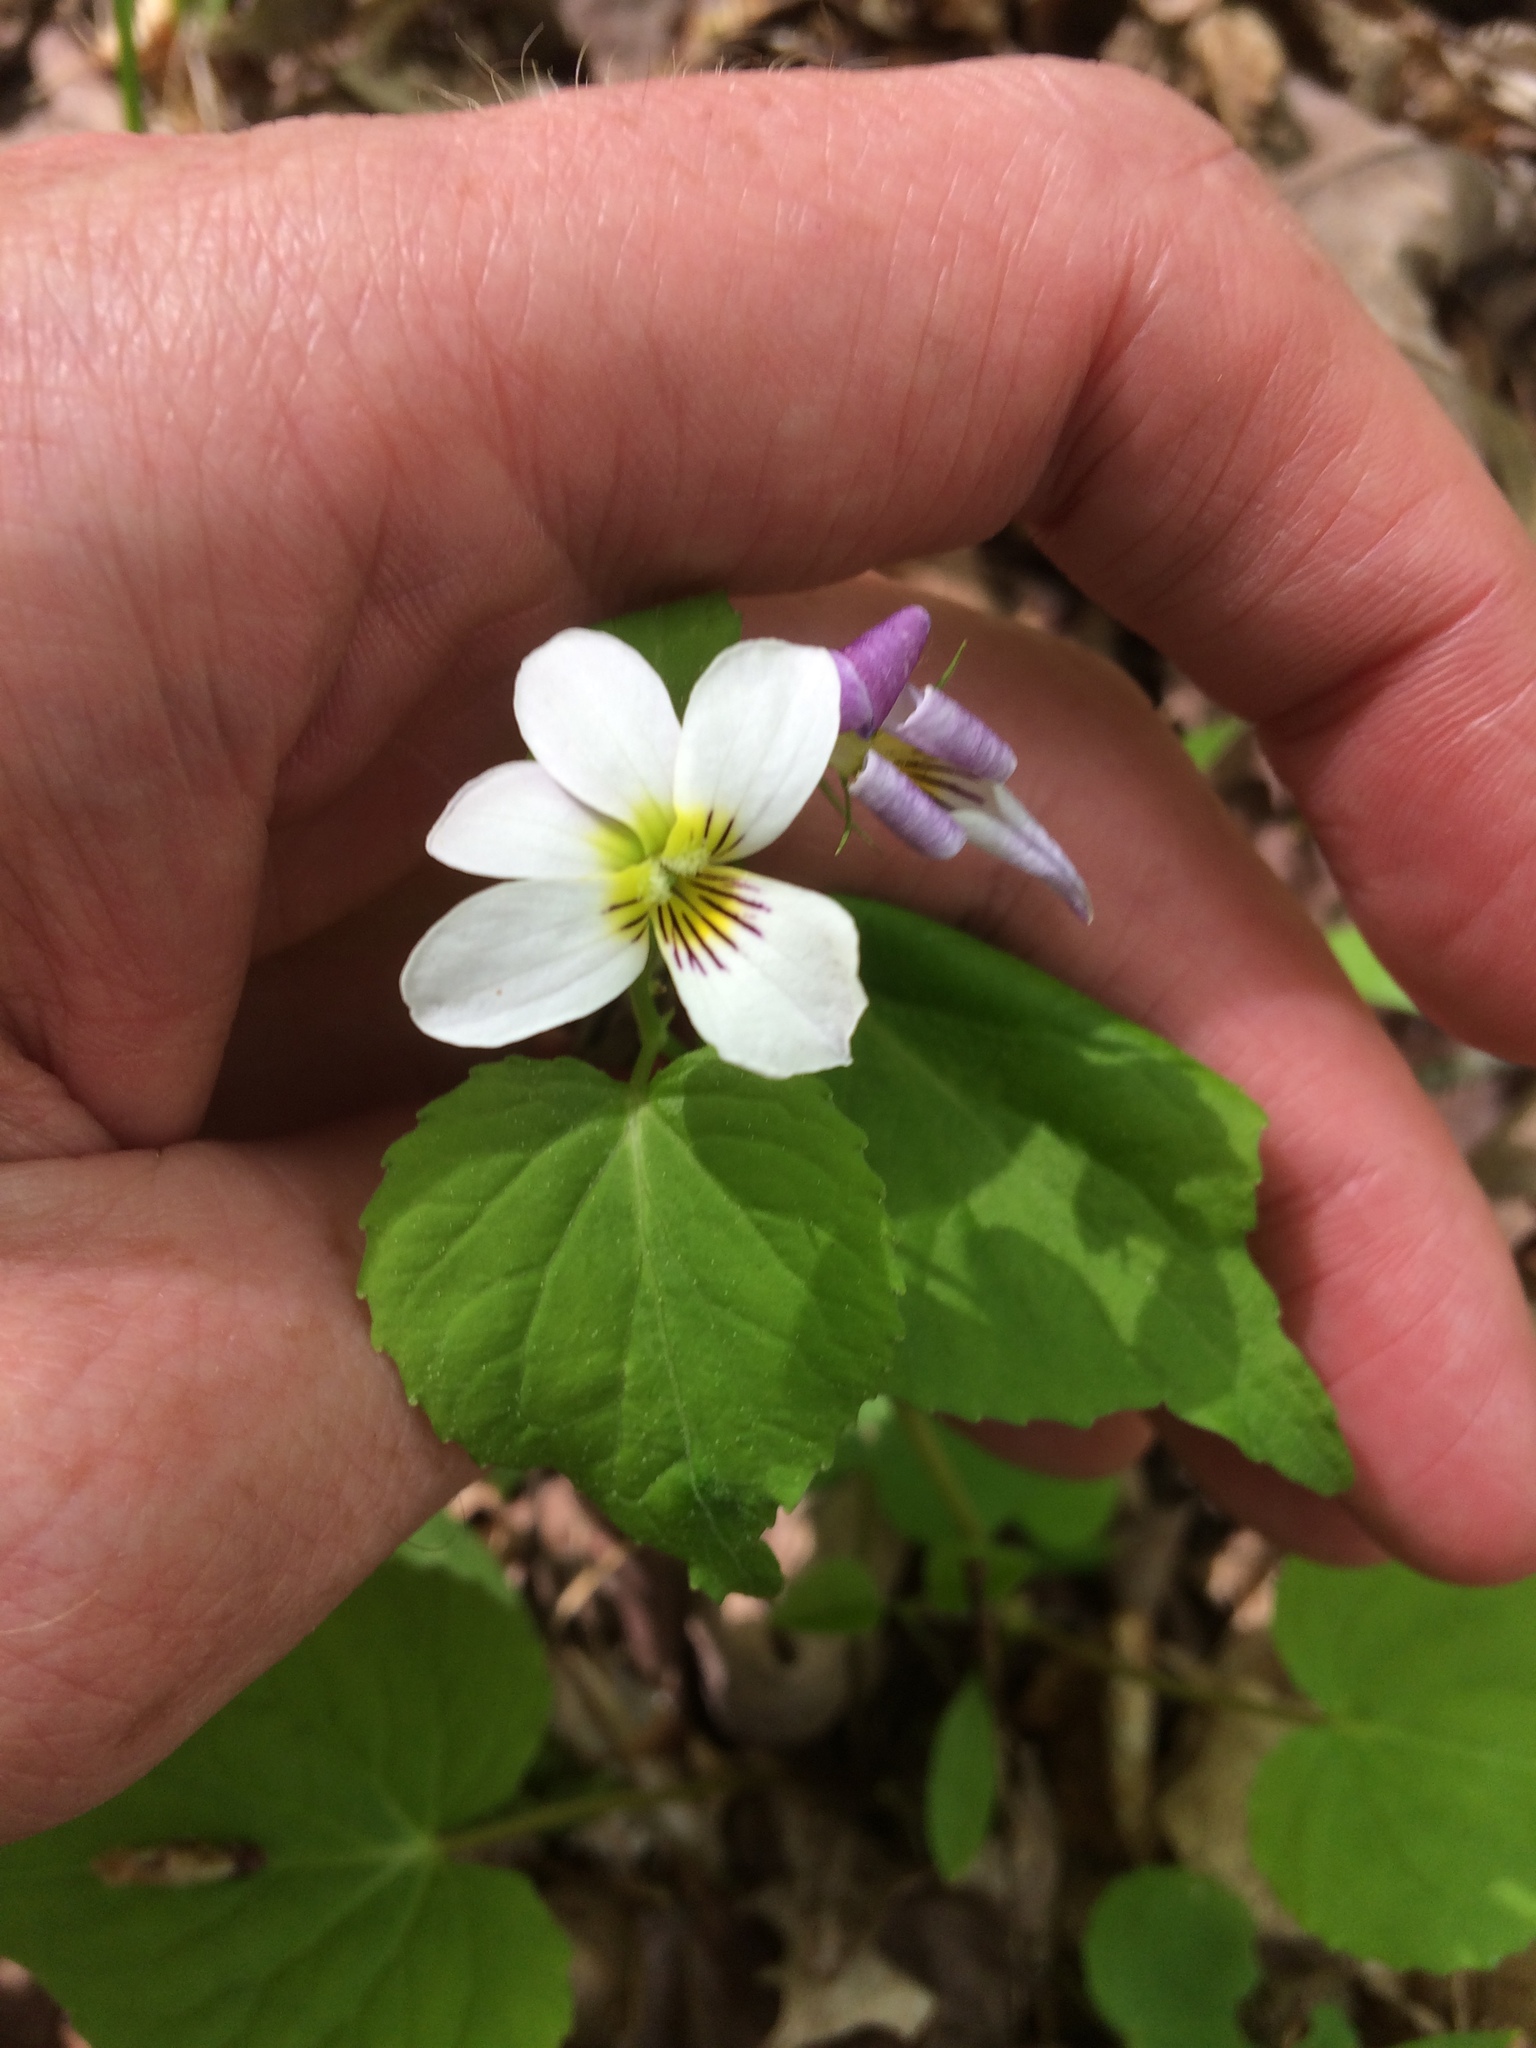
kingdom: Plantae
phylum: Tracheophyta
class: Magnoliopsida
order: Malpighiales
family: Violaceae
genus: Viola
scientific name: Viola canadensis
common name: Canada violet
